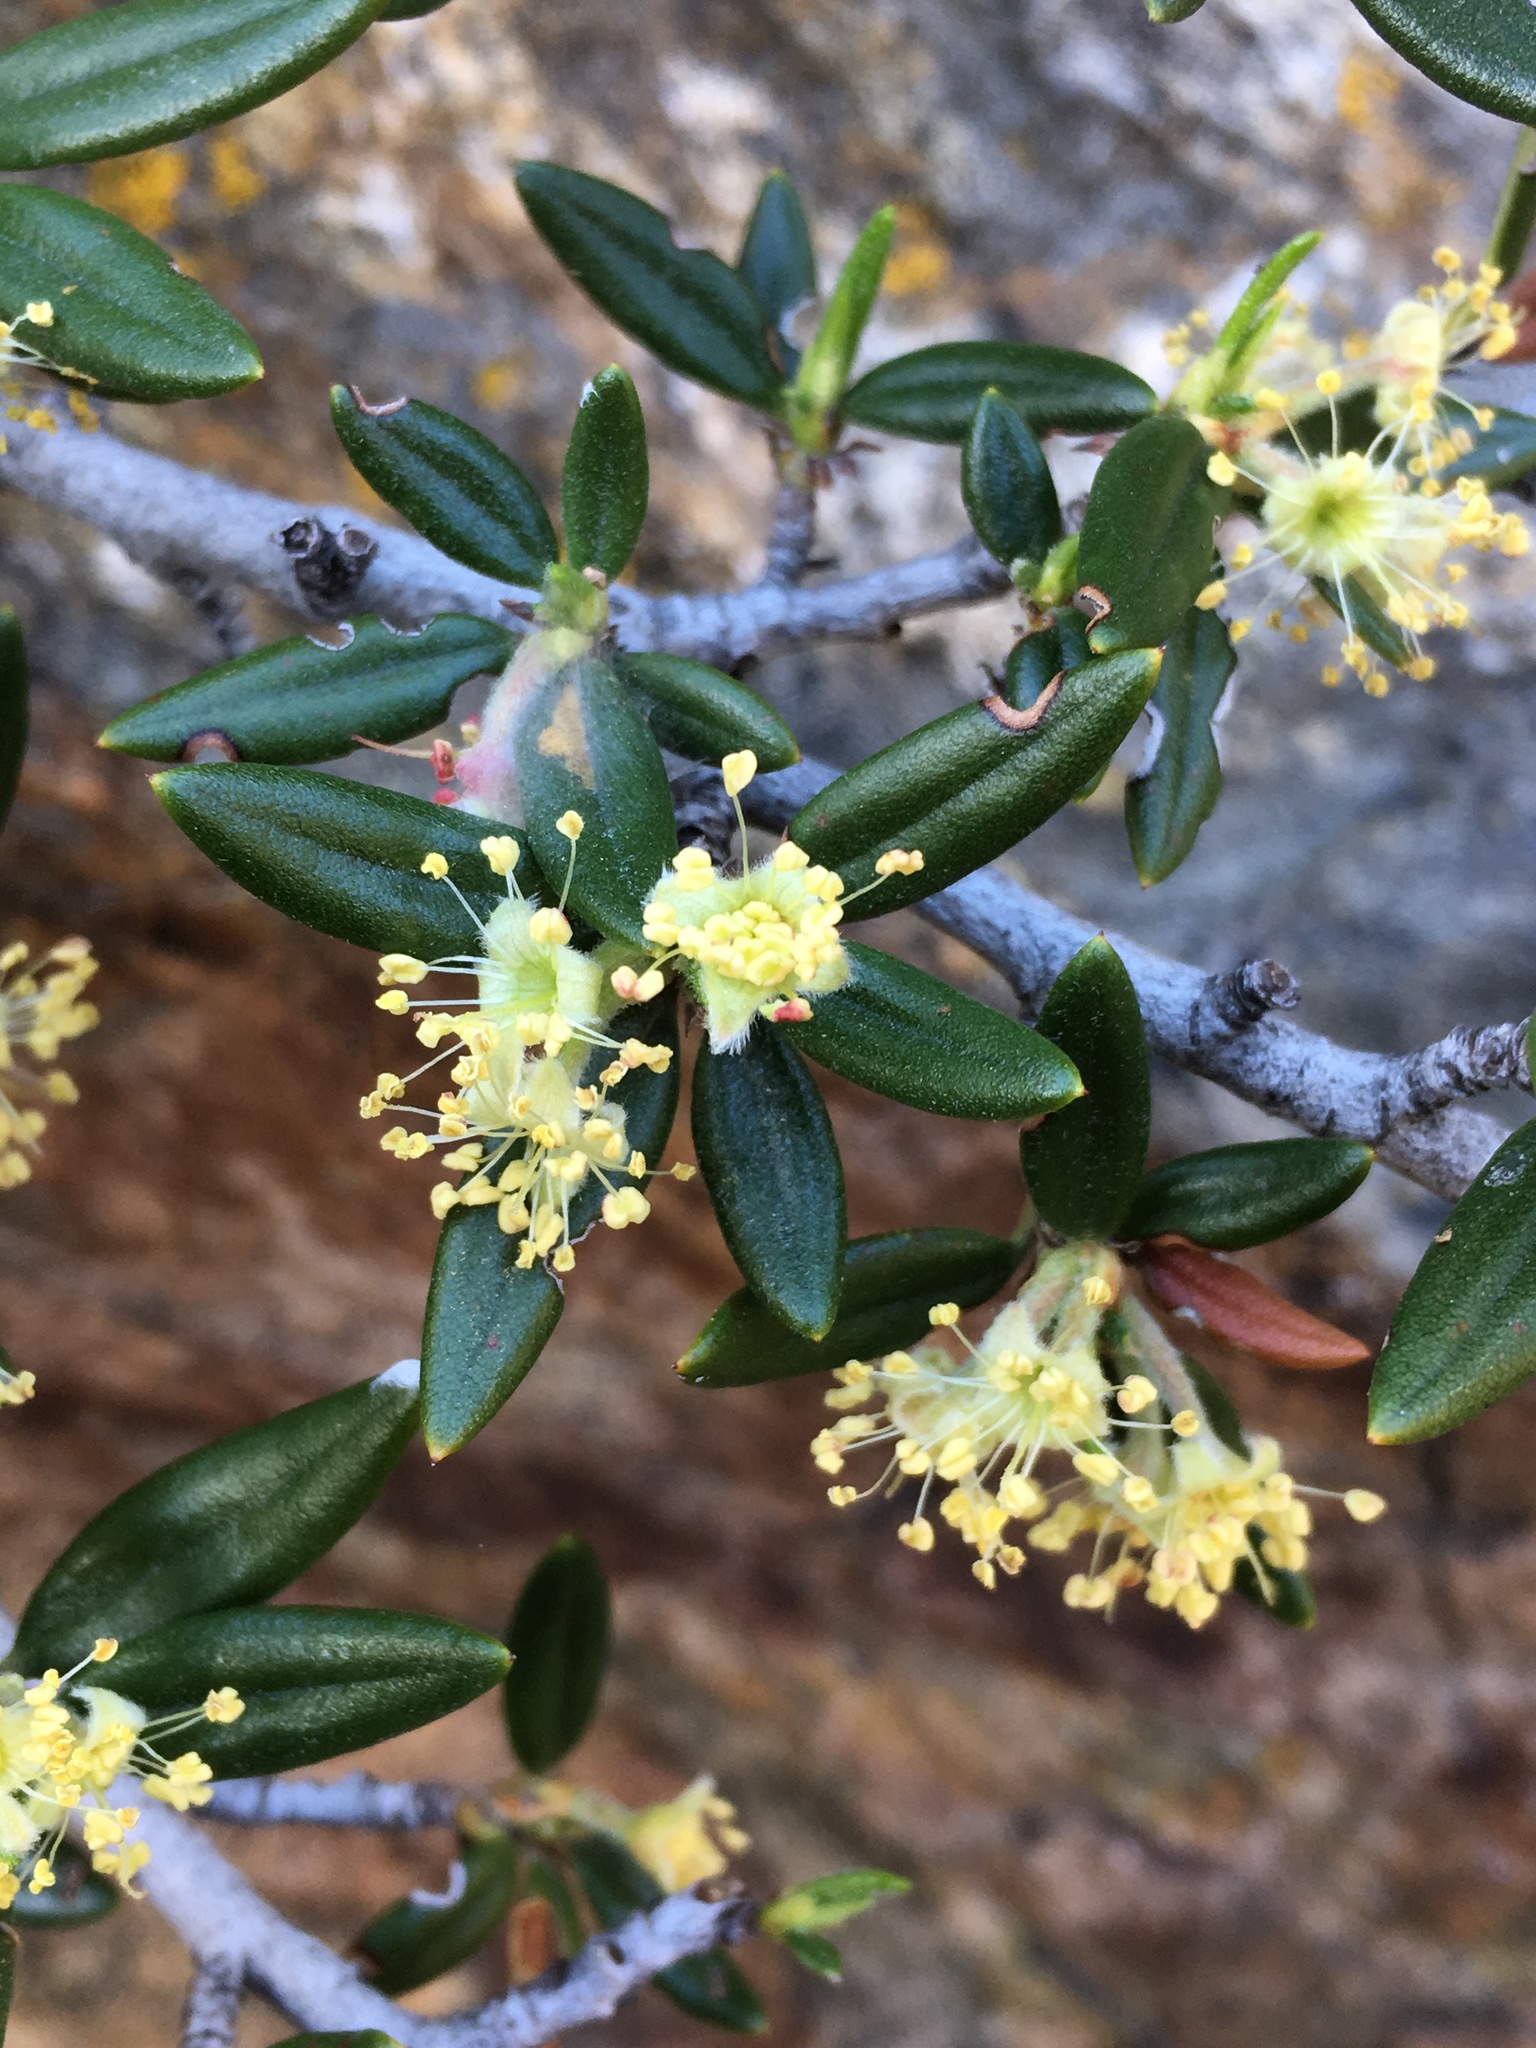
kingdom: Plantae
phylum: Tracheophyta
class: Magnoliopsida
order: Rosales
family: Rosaceae
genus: Cercocarpus
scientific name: Cercocarpus ledifolius
